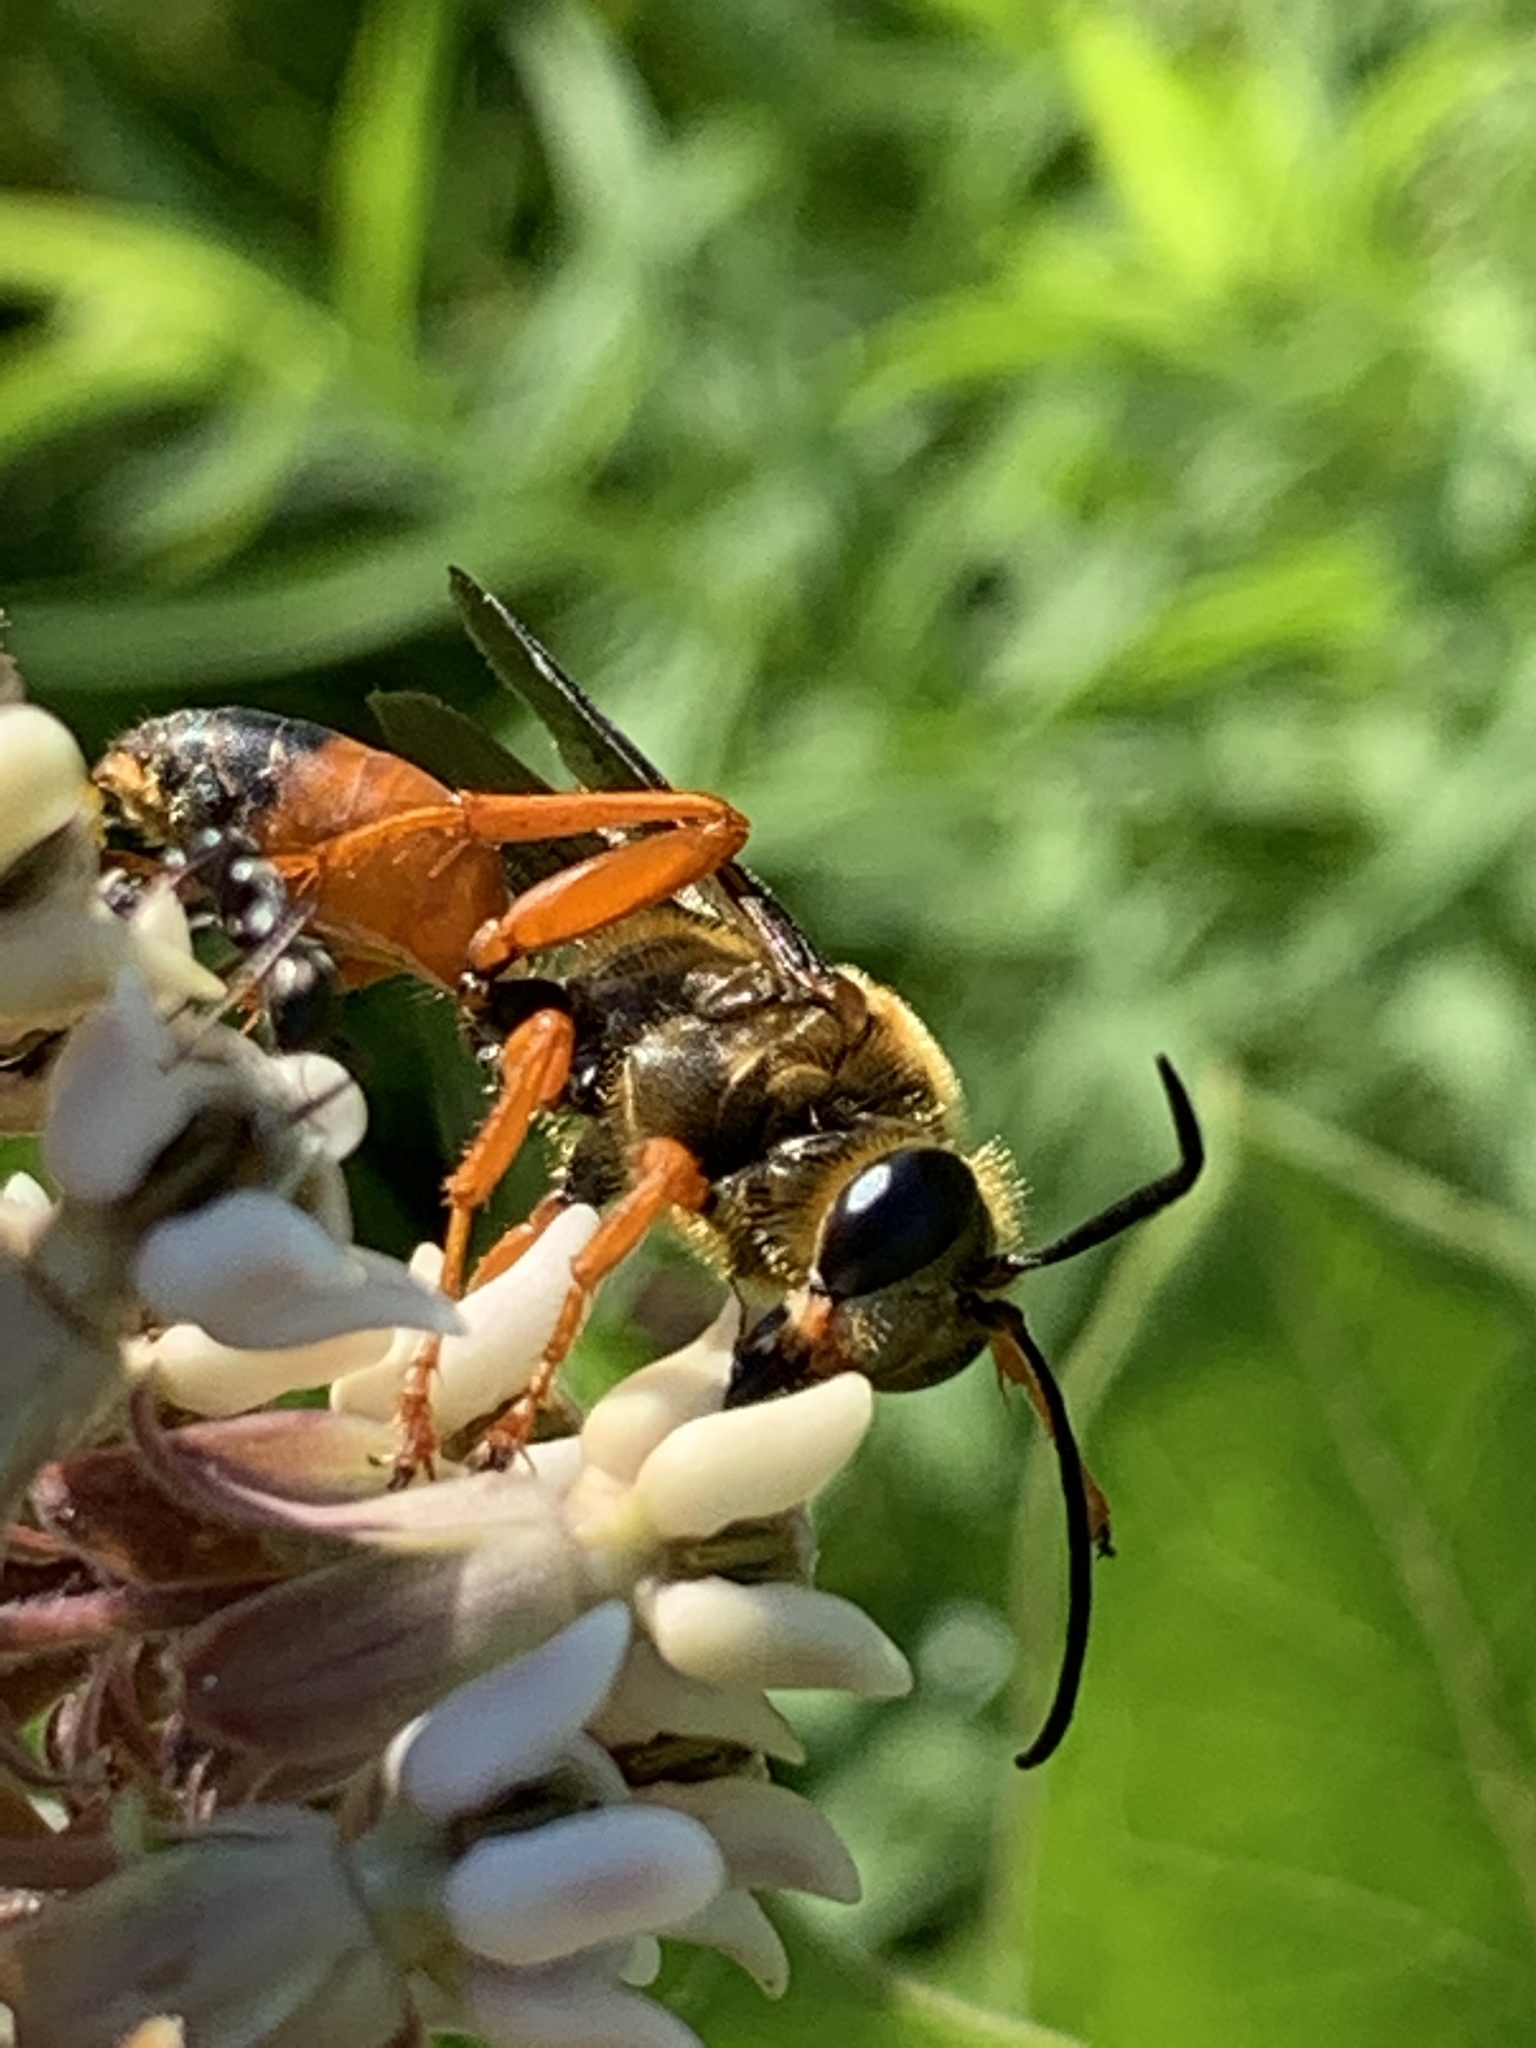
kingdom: Animalia
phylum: Arthropoda
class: Insecta
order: Hymenoptera
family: Sphecidae
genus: Sphex
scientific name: Sphex ichneumoneus
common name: Great golden digger wasp
